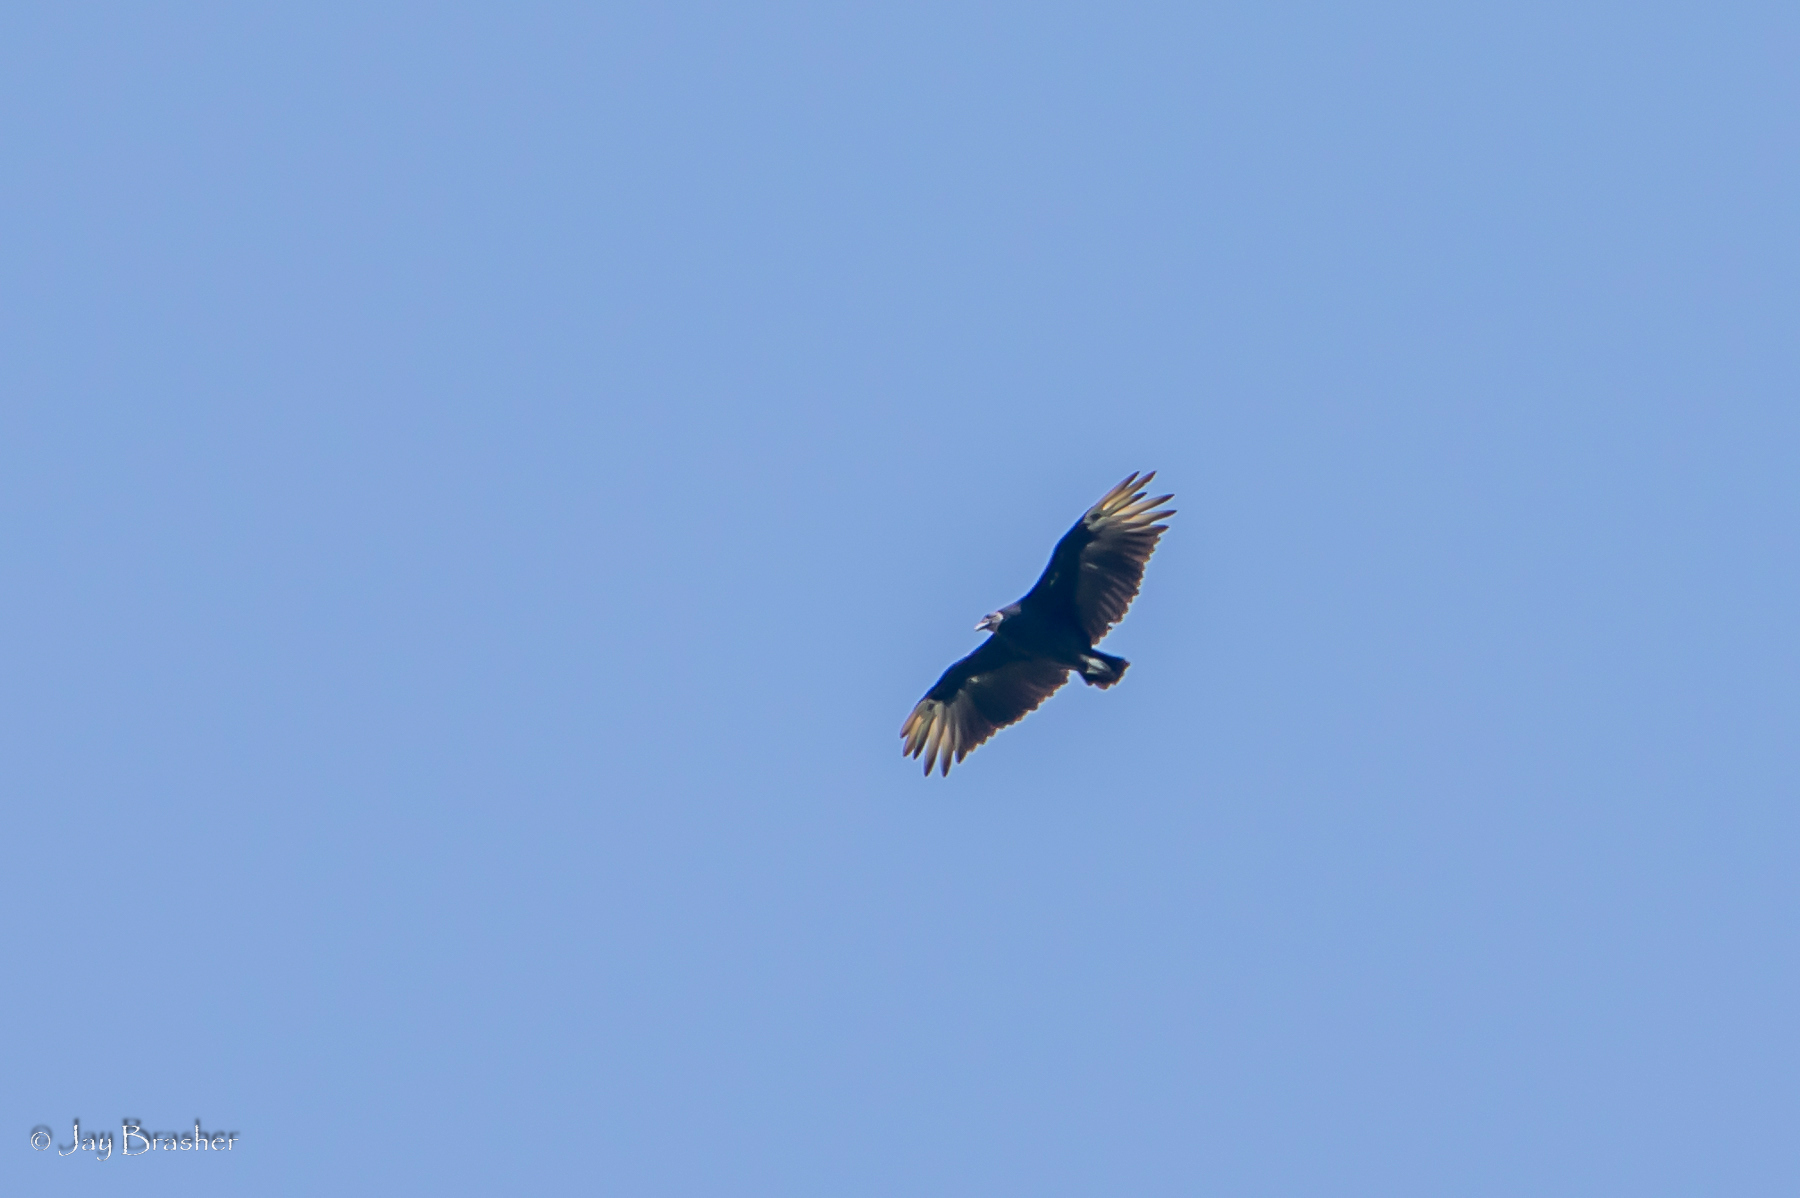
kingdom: Animalia
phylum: Chordata
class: Aves
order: Accipitriformes
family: Cathartidae
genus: Coragyps
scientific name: Coragyps atratus
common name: Black vulture
